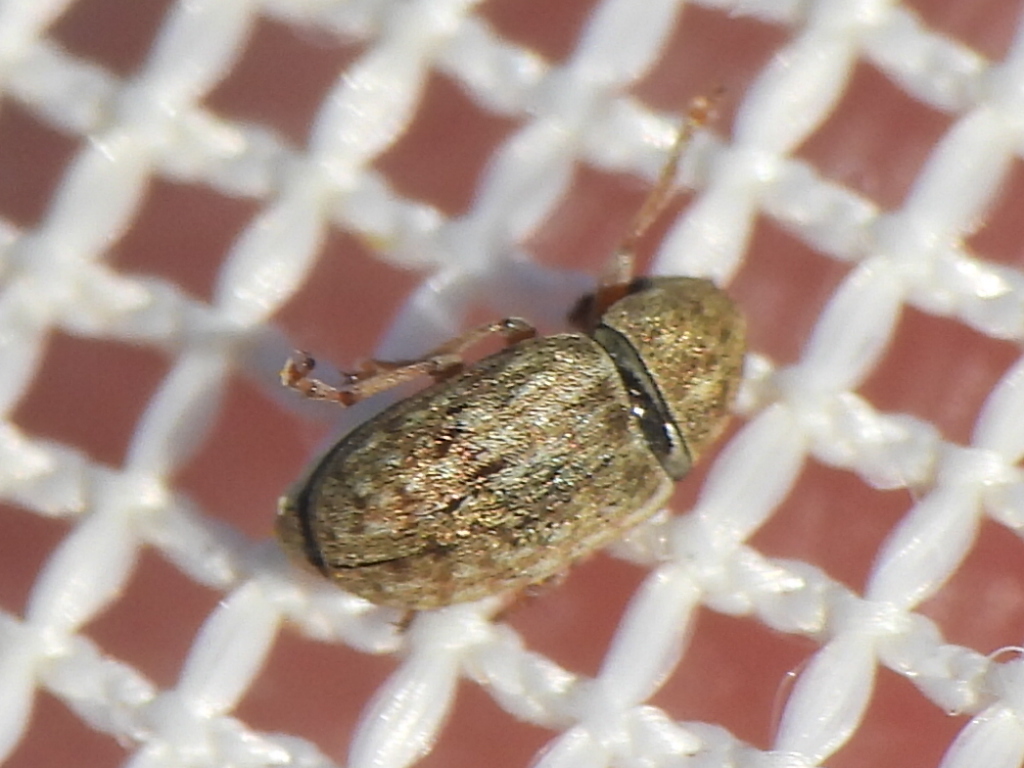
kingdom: Animalia
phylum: Arthropoda
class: Insecta
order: Coleoptera
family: Anthribidae
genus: Trigonorhinus
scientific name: Trigonorhinus limbatus
